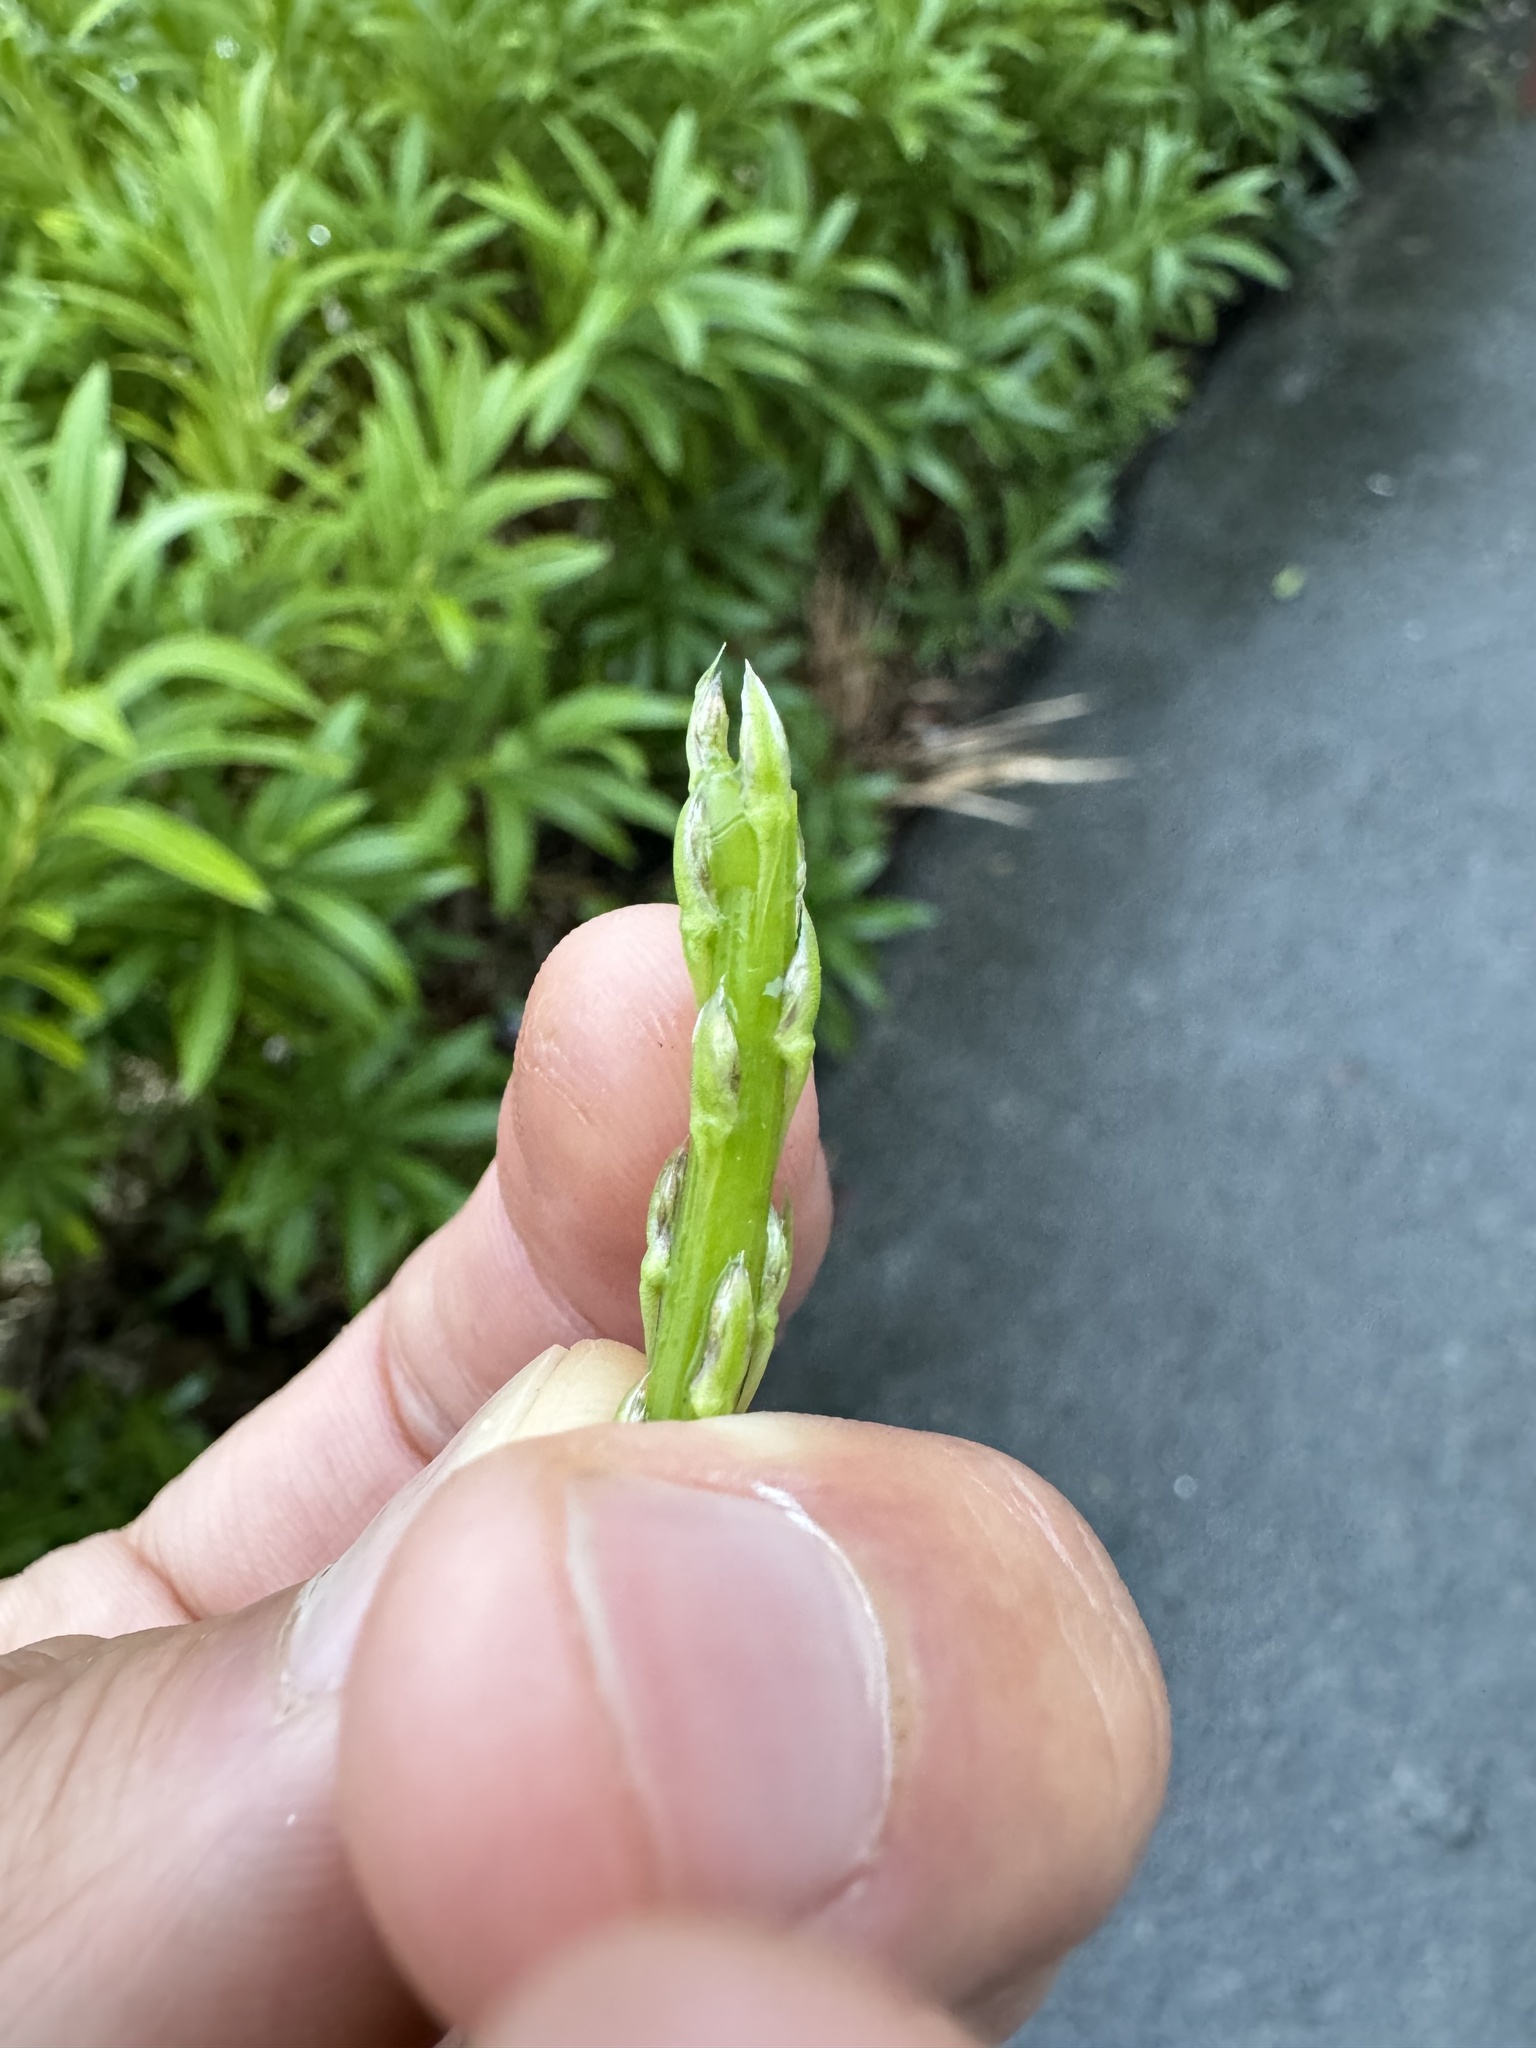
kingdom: Plantae
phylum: Tracheophyta
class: Liliopsida
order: Asparagales
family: Asparagaceae
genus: Asparagus
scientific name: Asparagus aethiopicus
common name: Sprenger's asparagus fern
